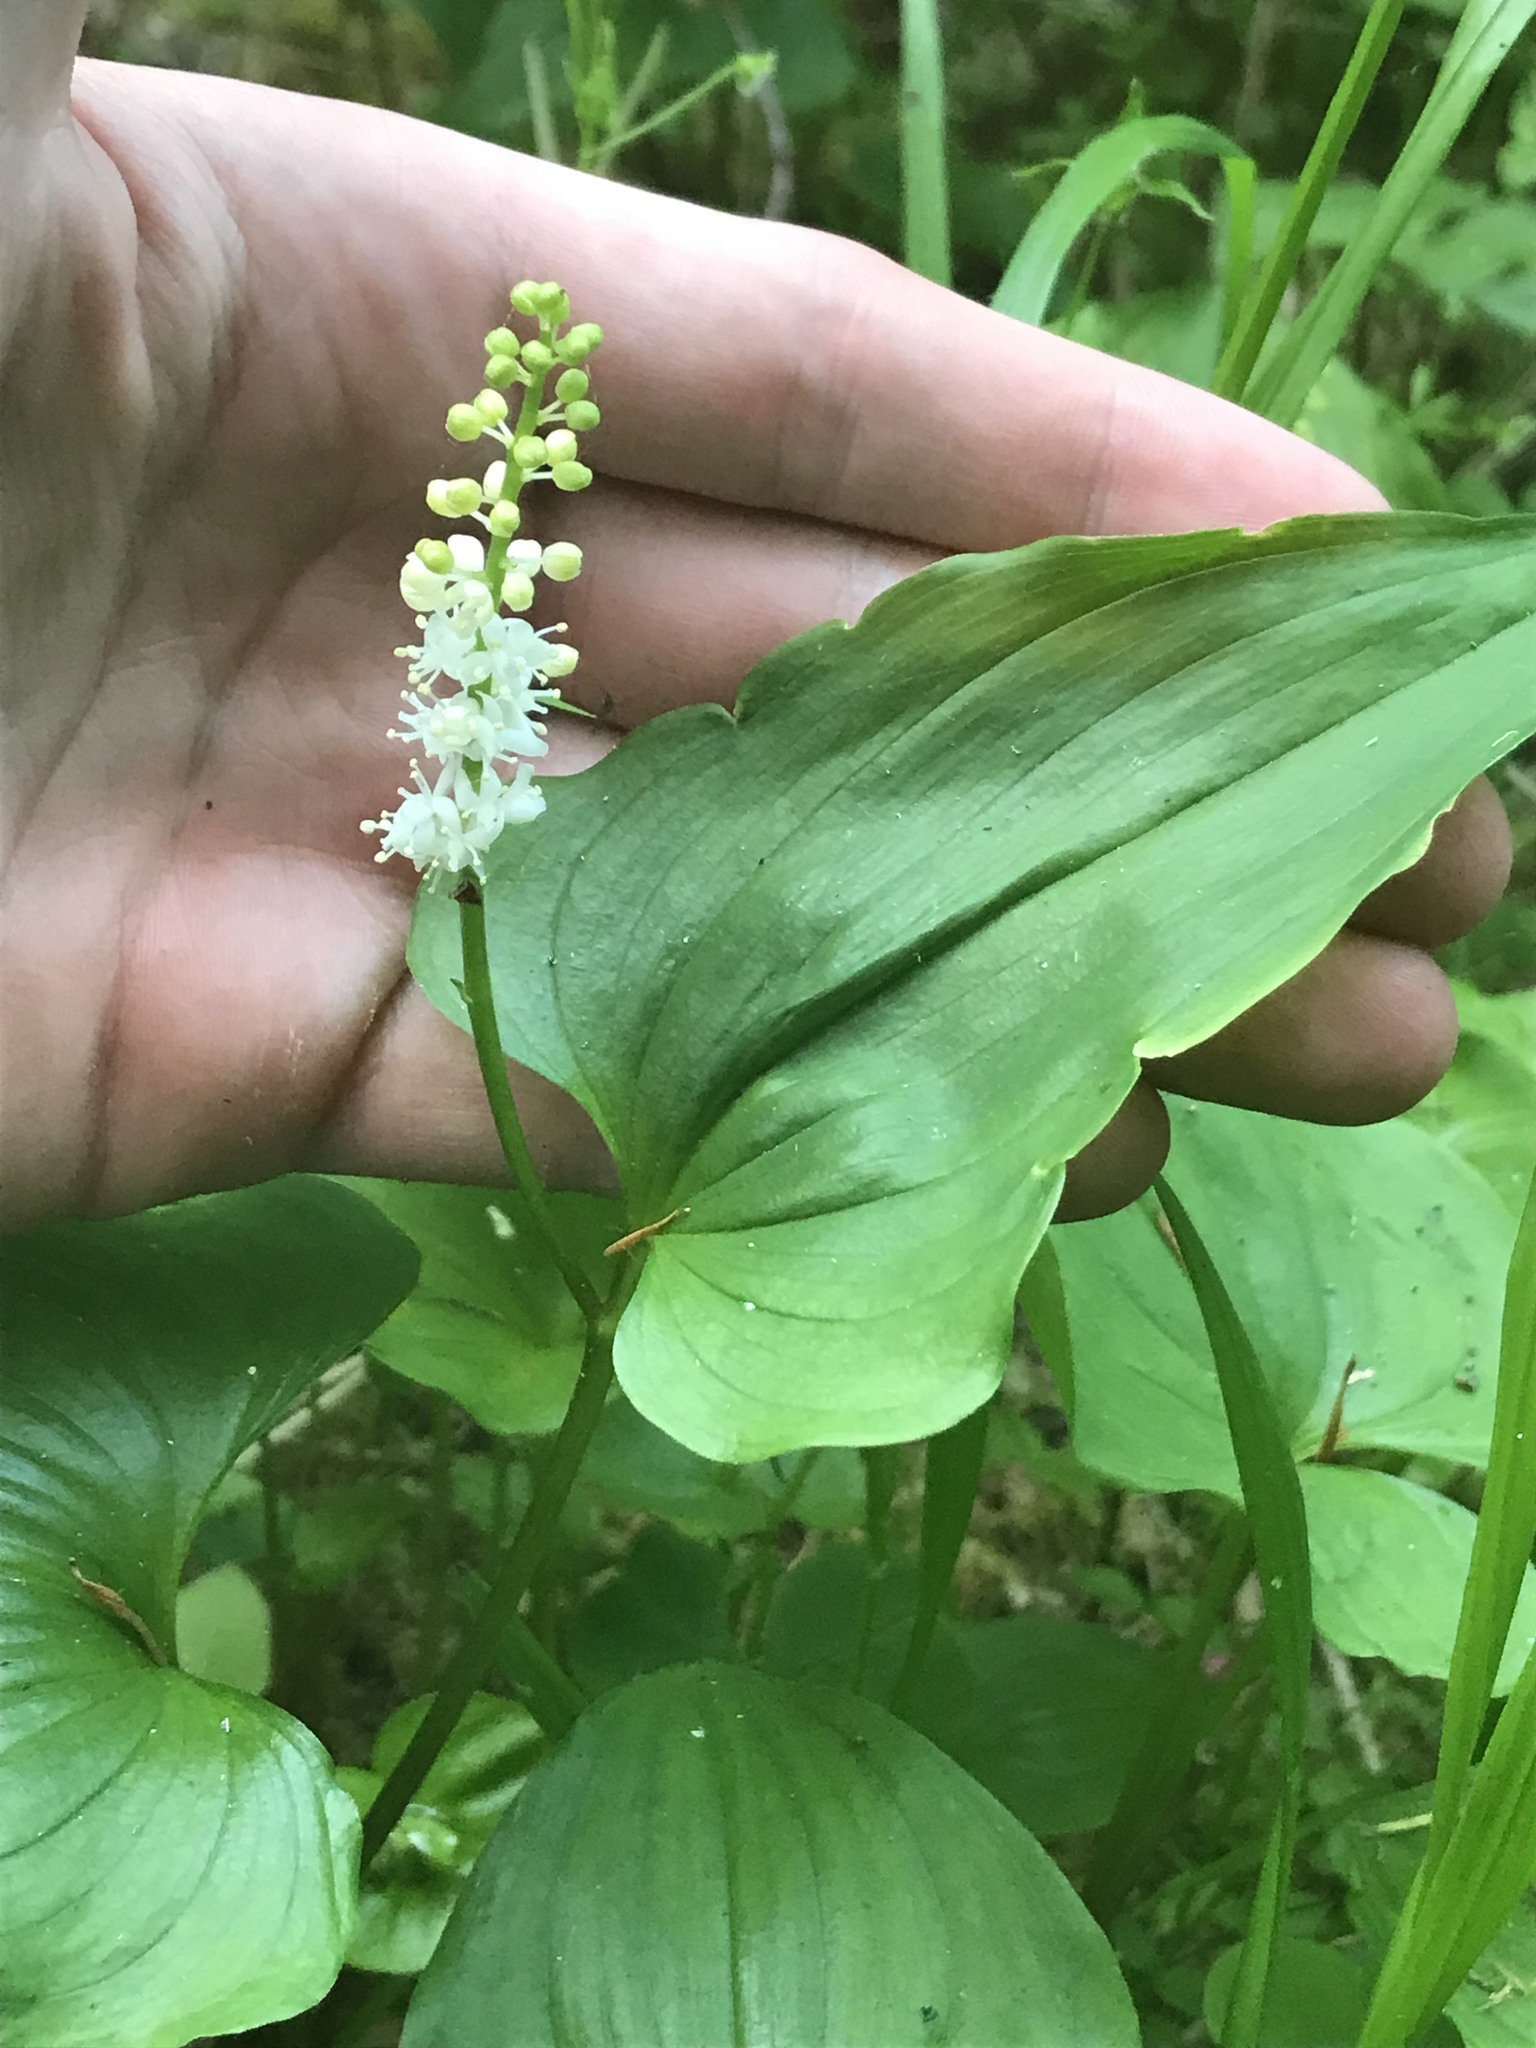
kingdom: Plantae
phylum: Tracheophyta
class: Liliopsida
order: Asparagales
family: Asparagaceae
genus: Maianthemum
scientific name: Maianthemum dilatatum
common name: False lily-of-the-valley
